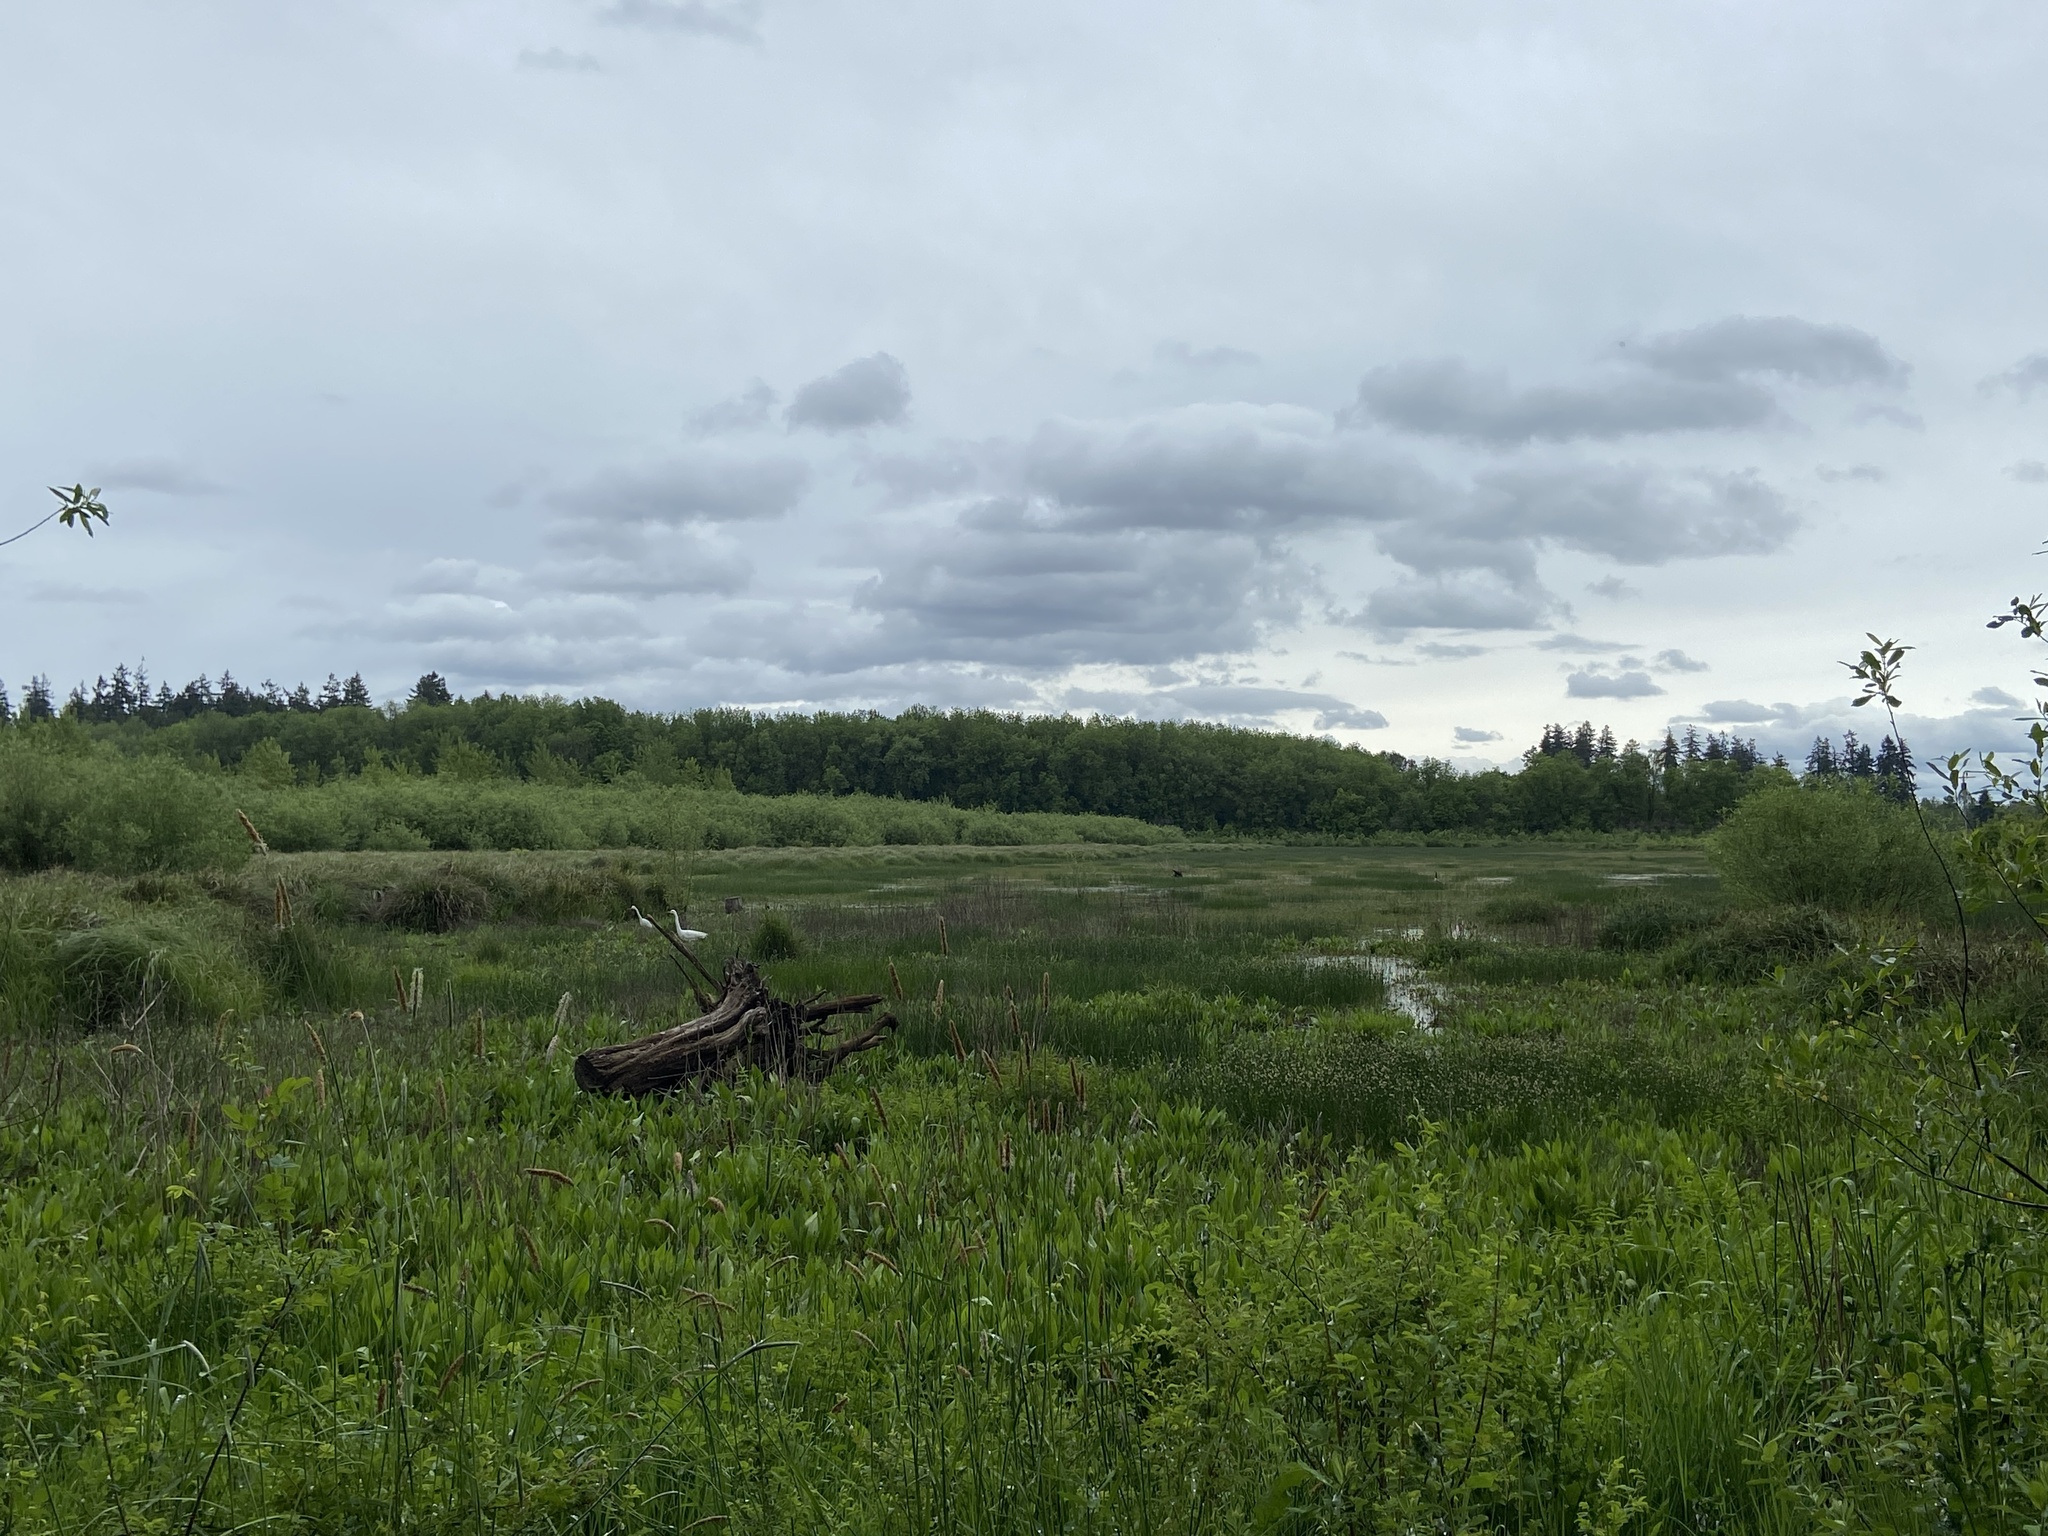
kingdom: Animalia
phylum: Chordata
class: Aves
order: Pelecaniformes
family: Ardeidae
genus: Ardea
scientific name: Ardea alba
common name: Great egret
